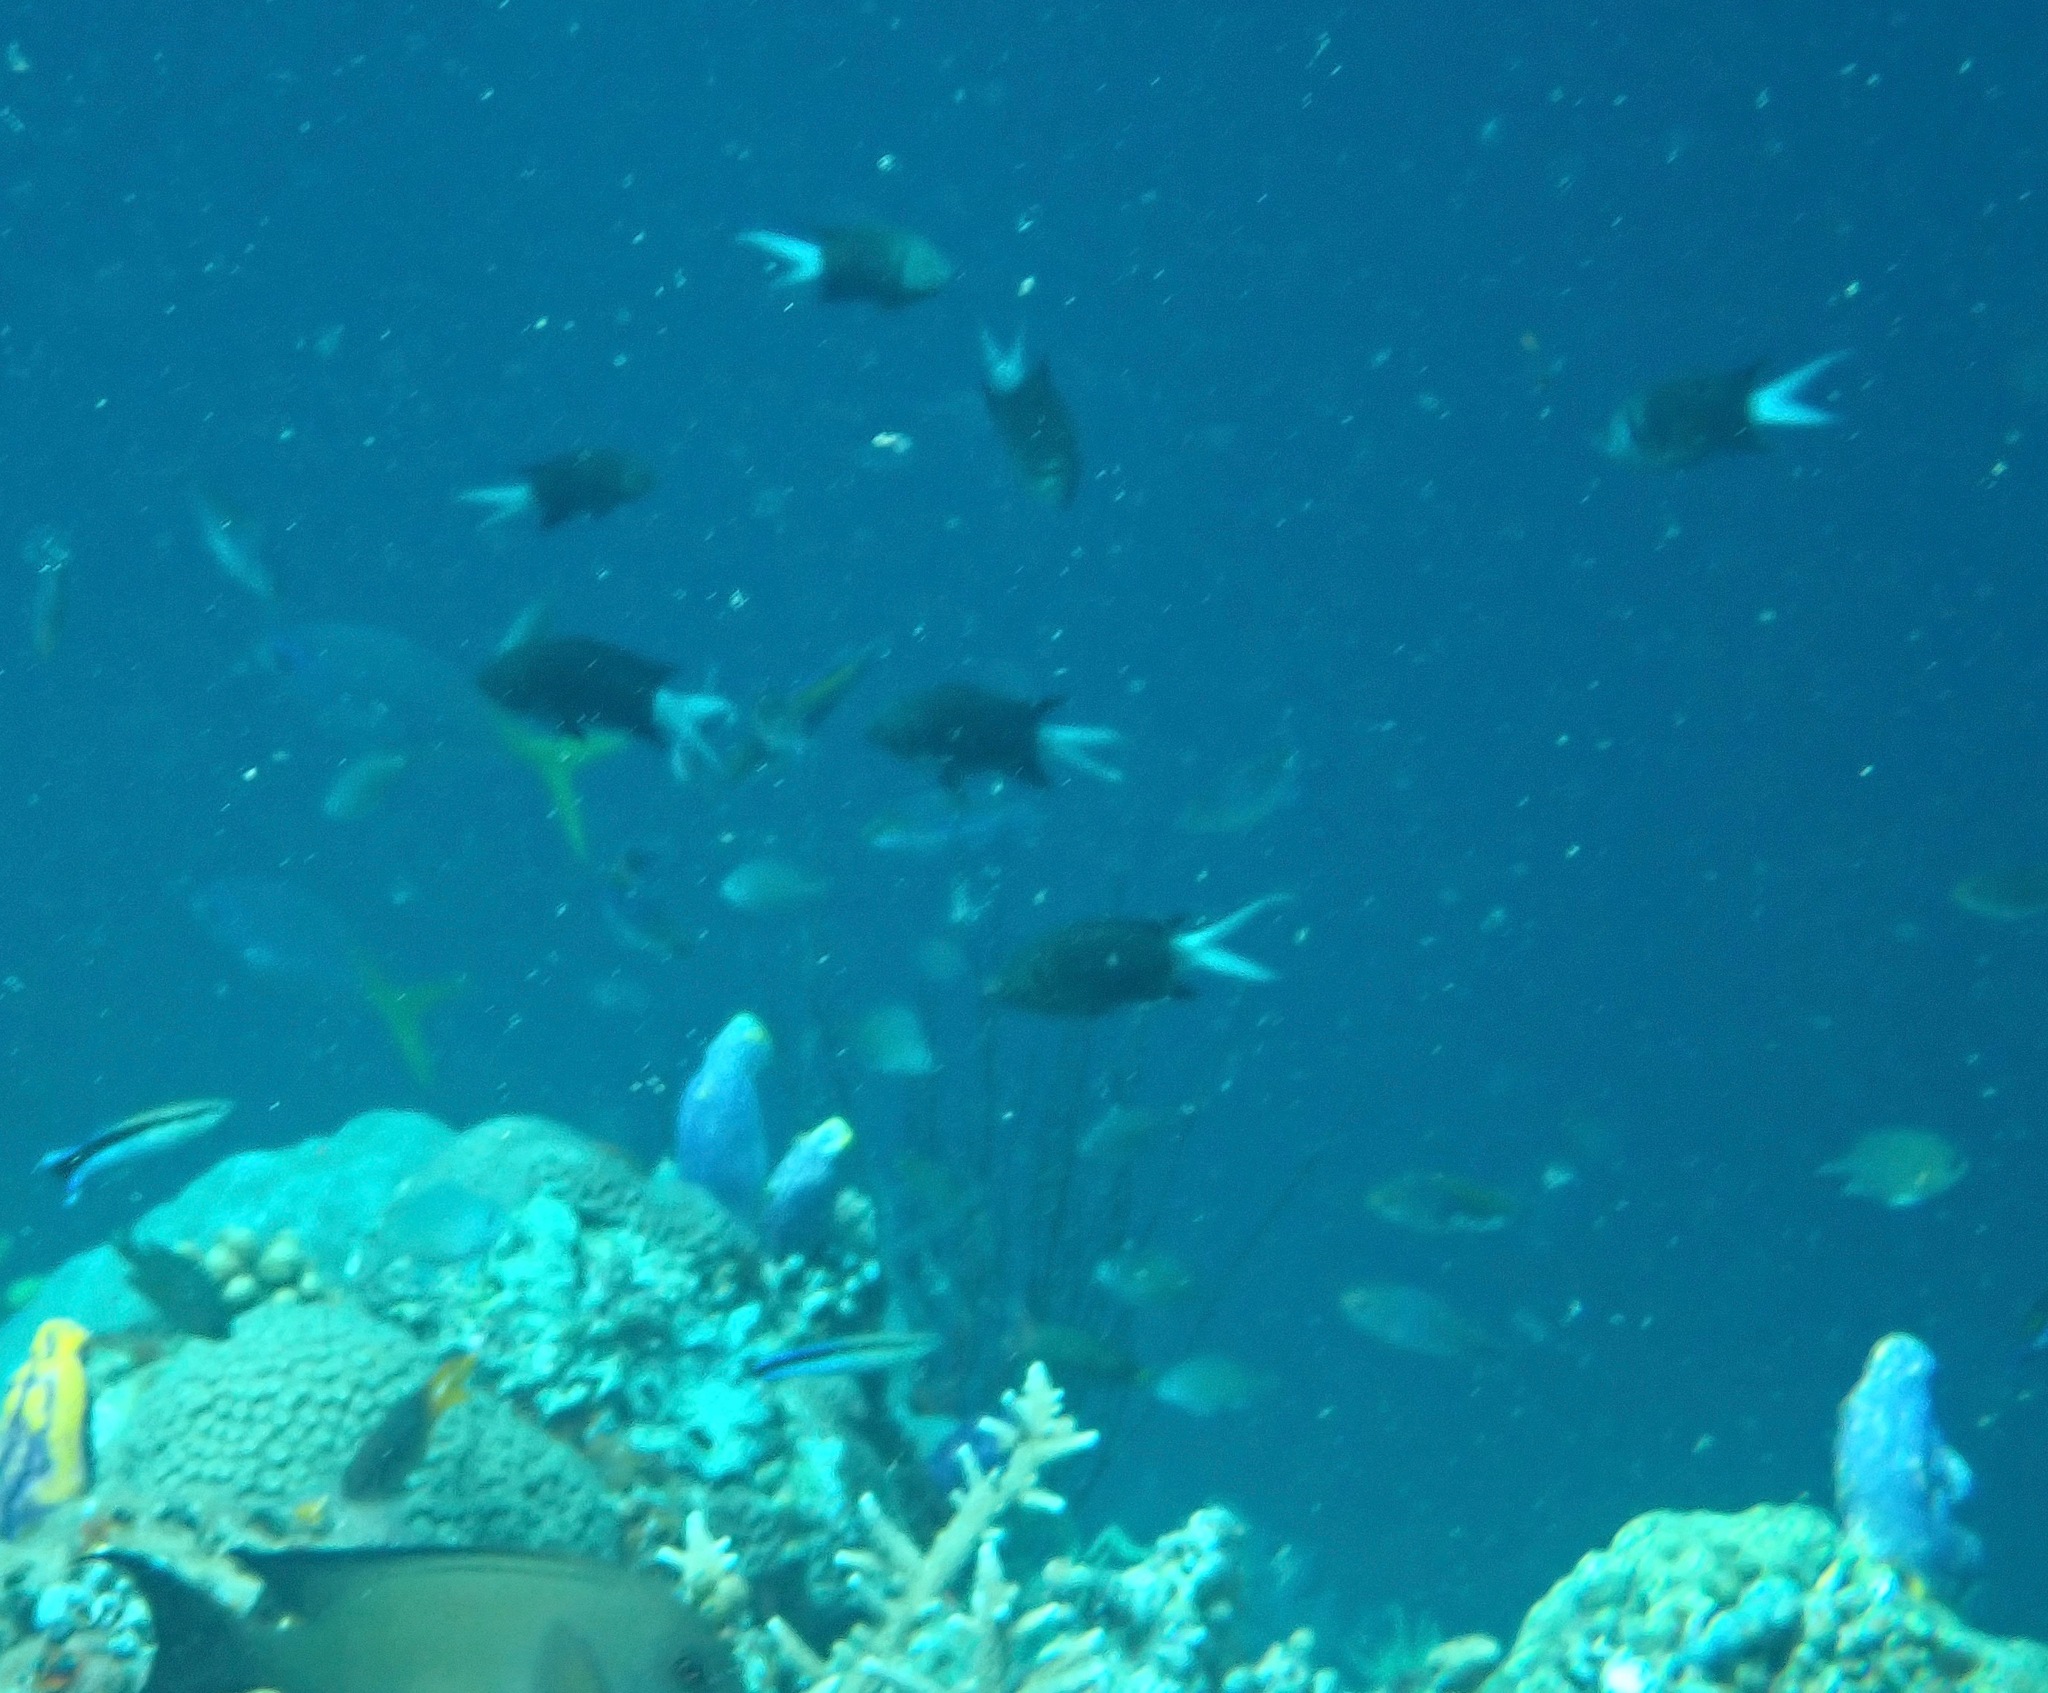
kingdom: Animalia
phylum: Chordata
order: Perciformes
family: Pomacentridae
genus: Chromis
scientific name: Chromis xanthura
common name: Black chromis
